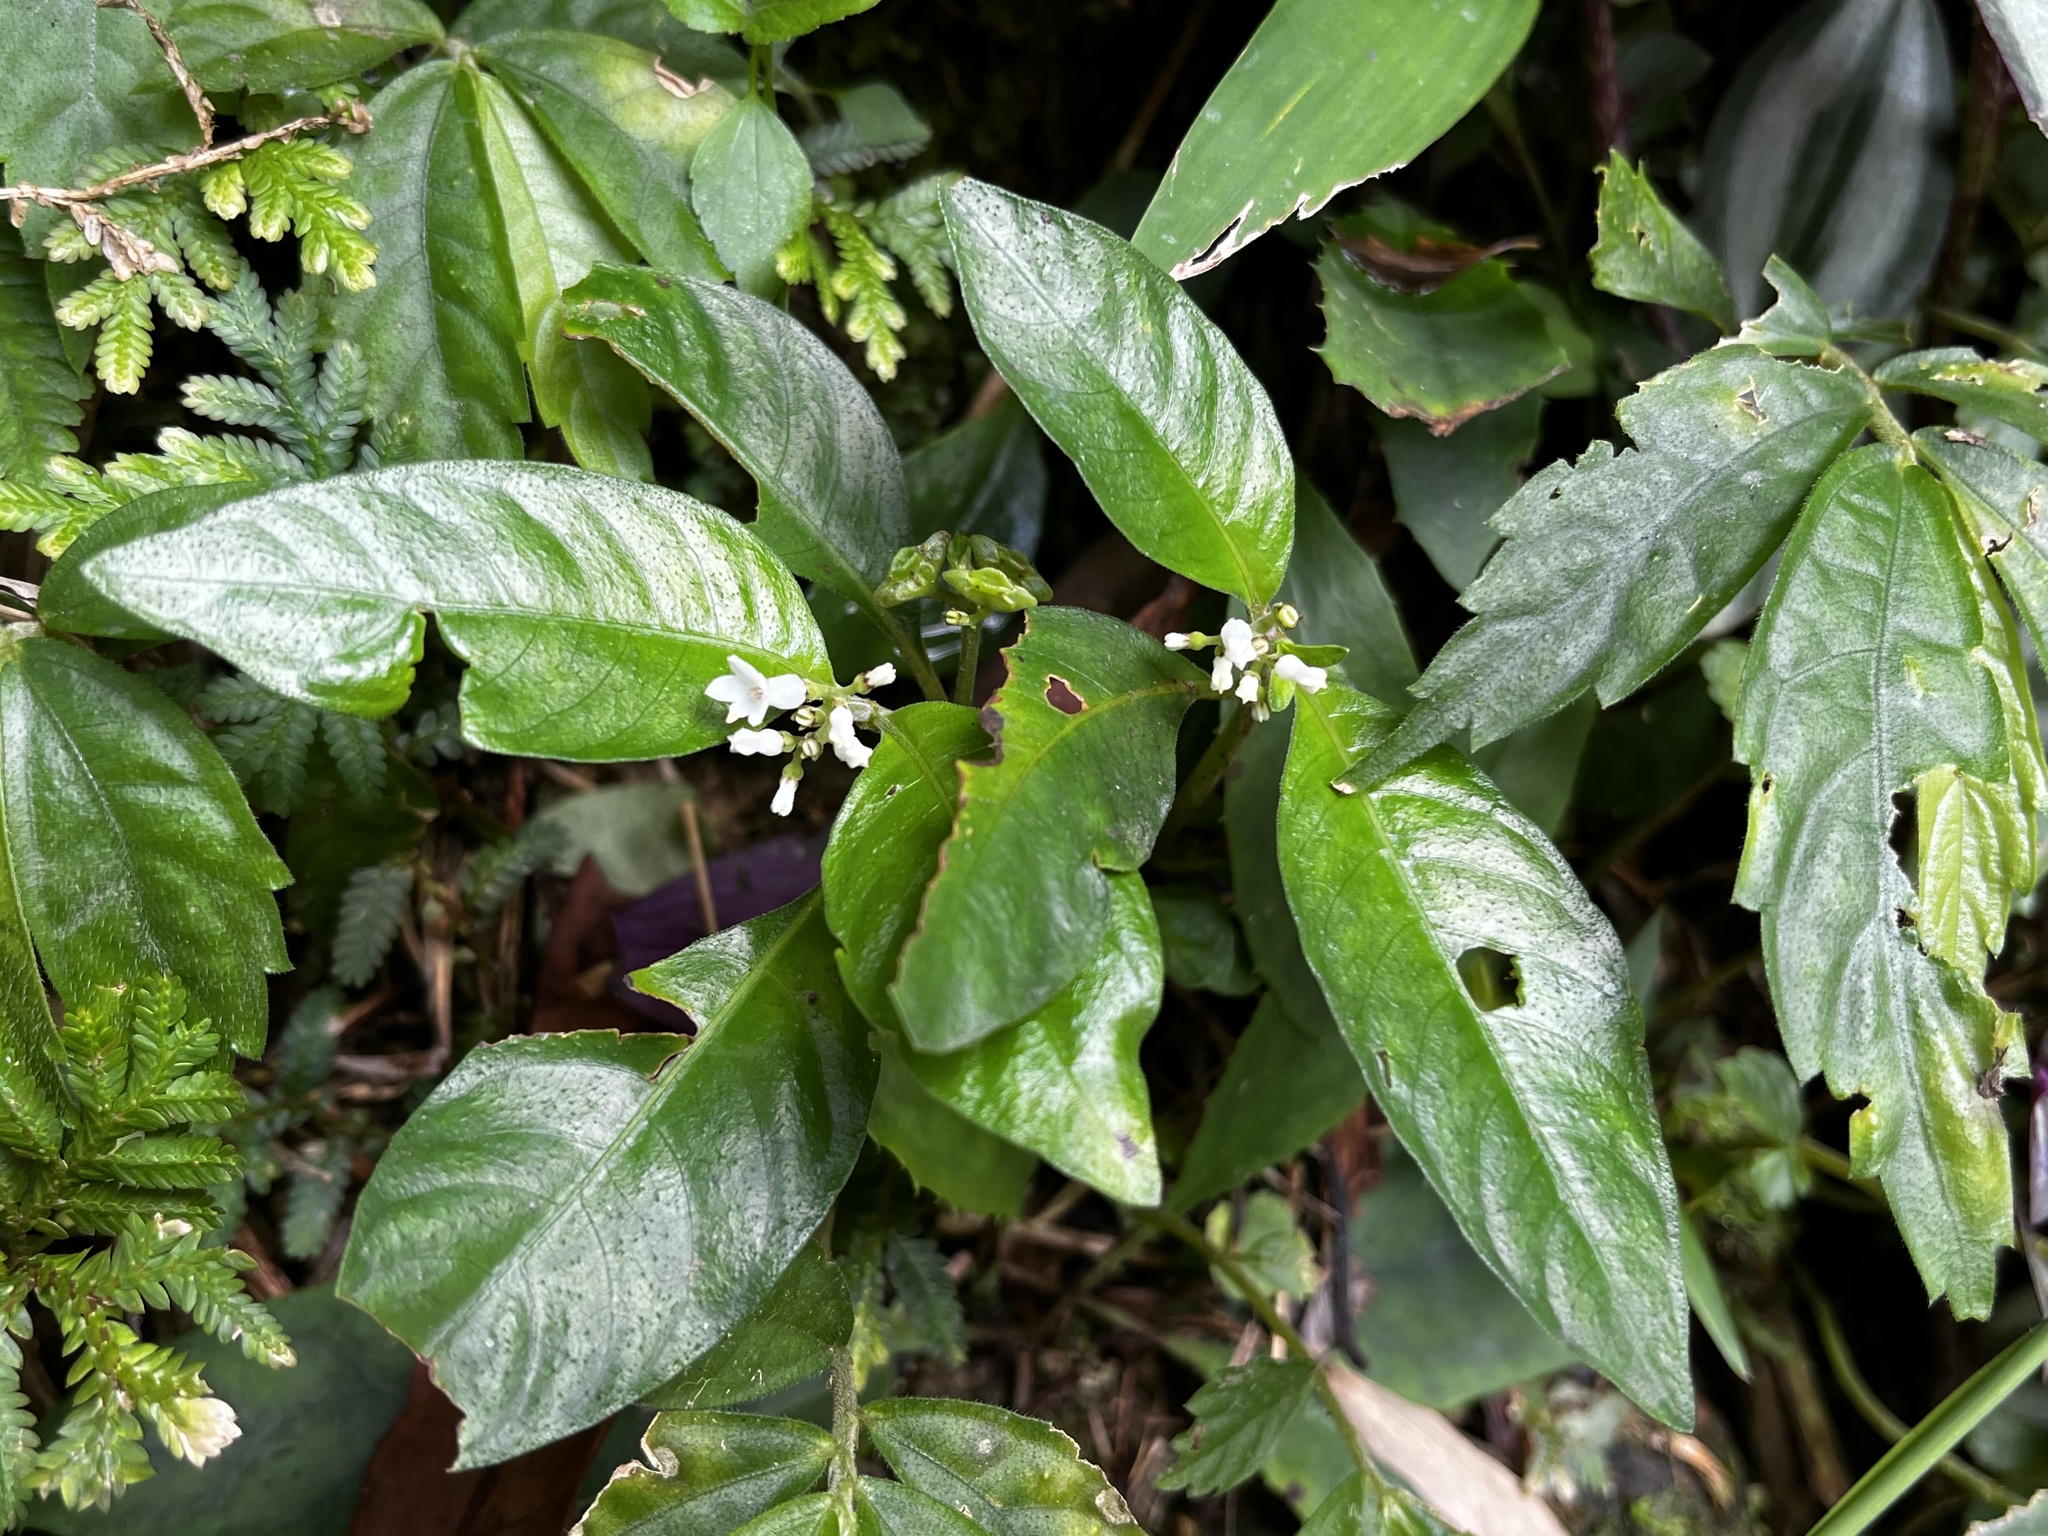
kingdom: Plantae
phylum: Tracheophyta
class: Magnoliopsida
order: Gentianales
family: Rubiaceae
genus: Ophiorrhiza
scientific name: Ophiorrhiza pumila
